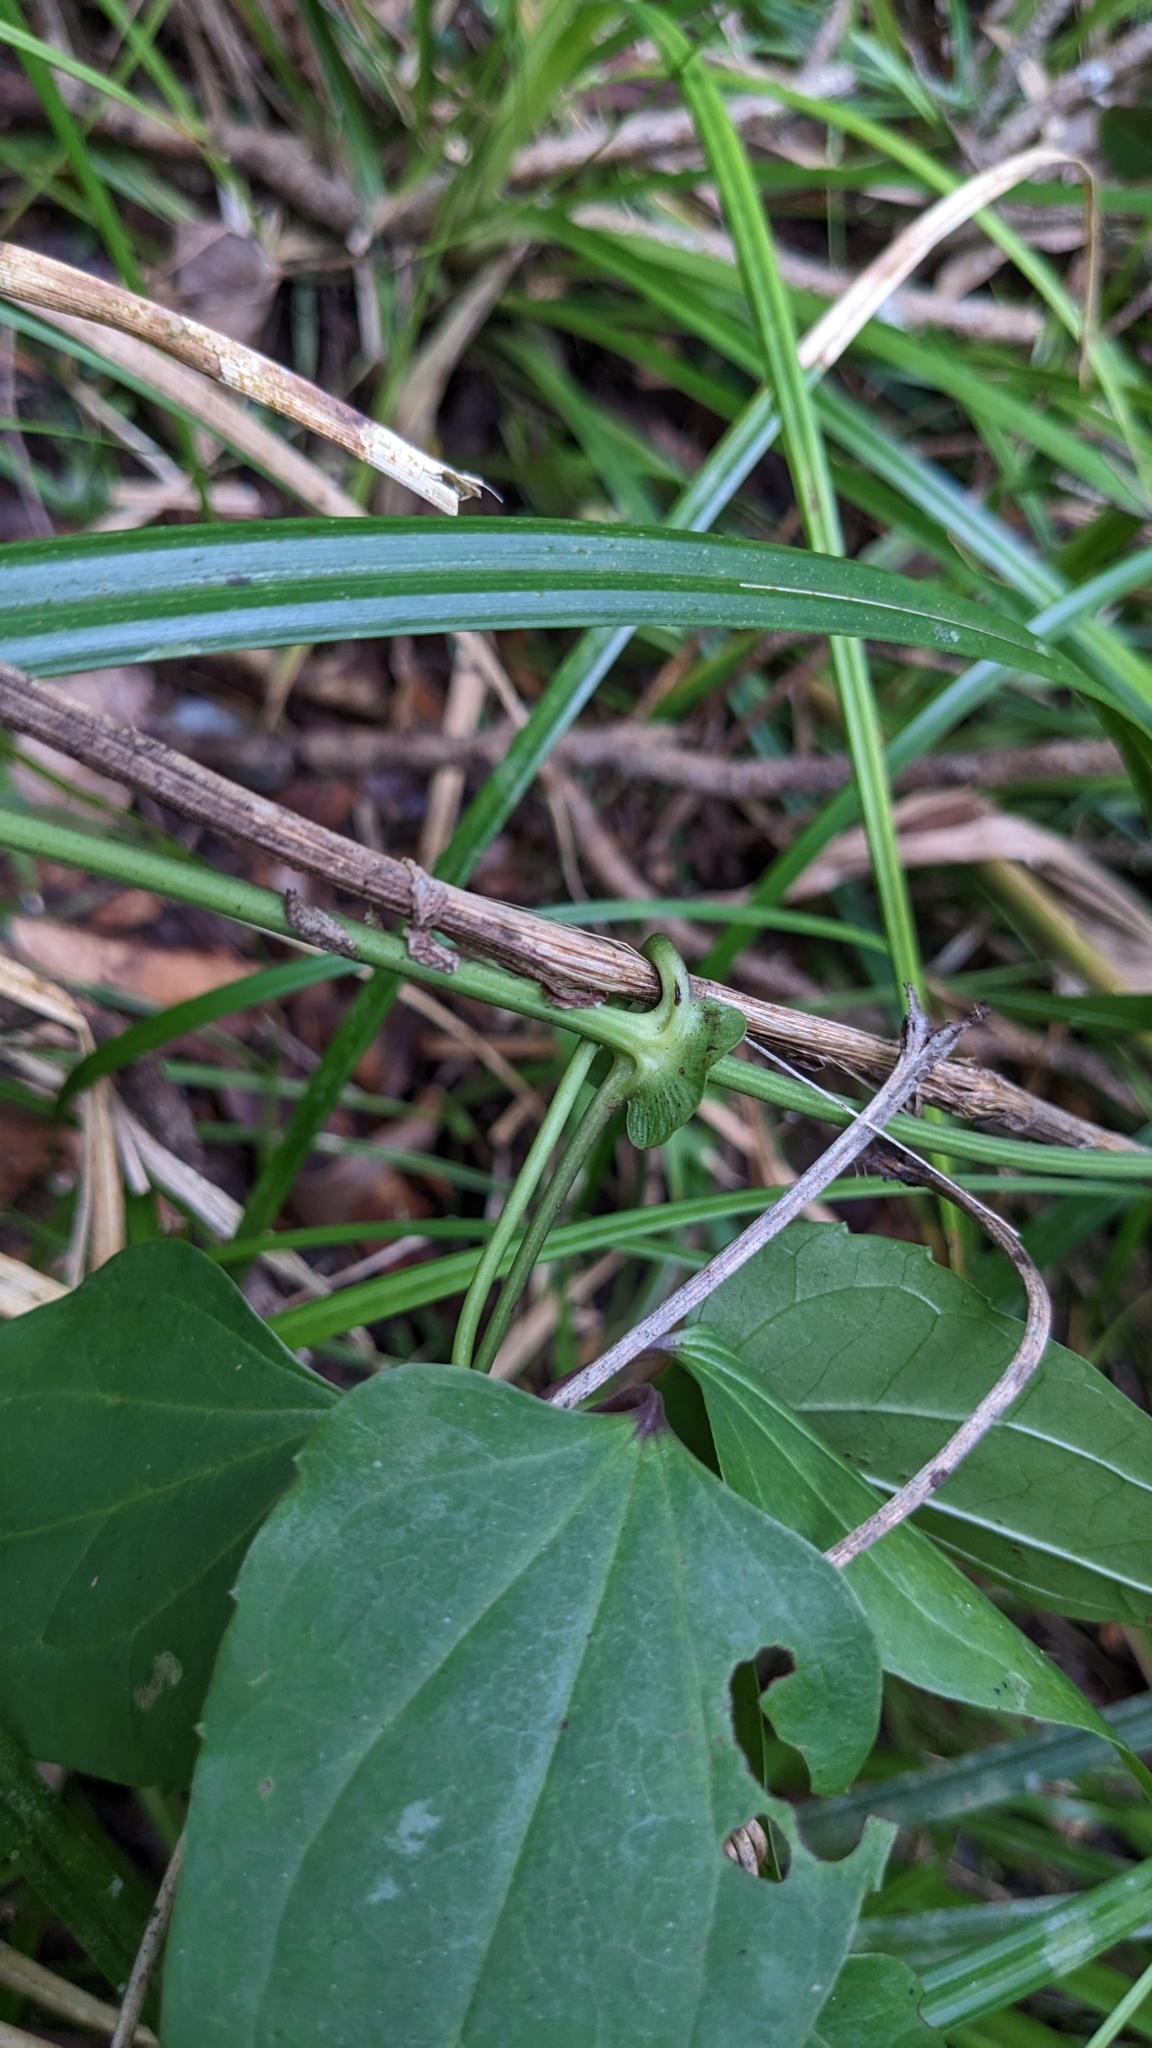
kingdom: Plantae
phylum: Tracheophyta
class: Magnoliopsida
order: Ranunculales
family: Ranunculaceae
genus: Clematis
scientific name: Clematis tashiroi
